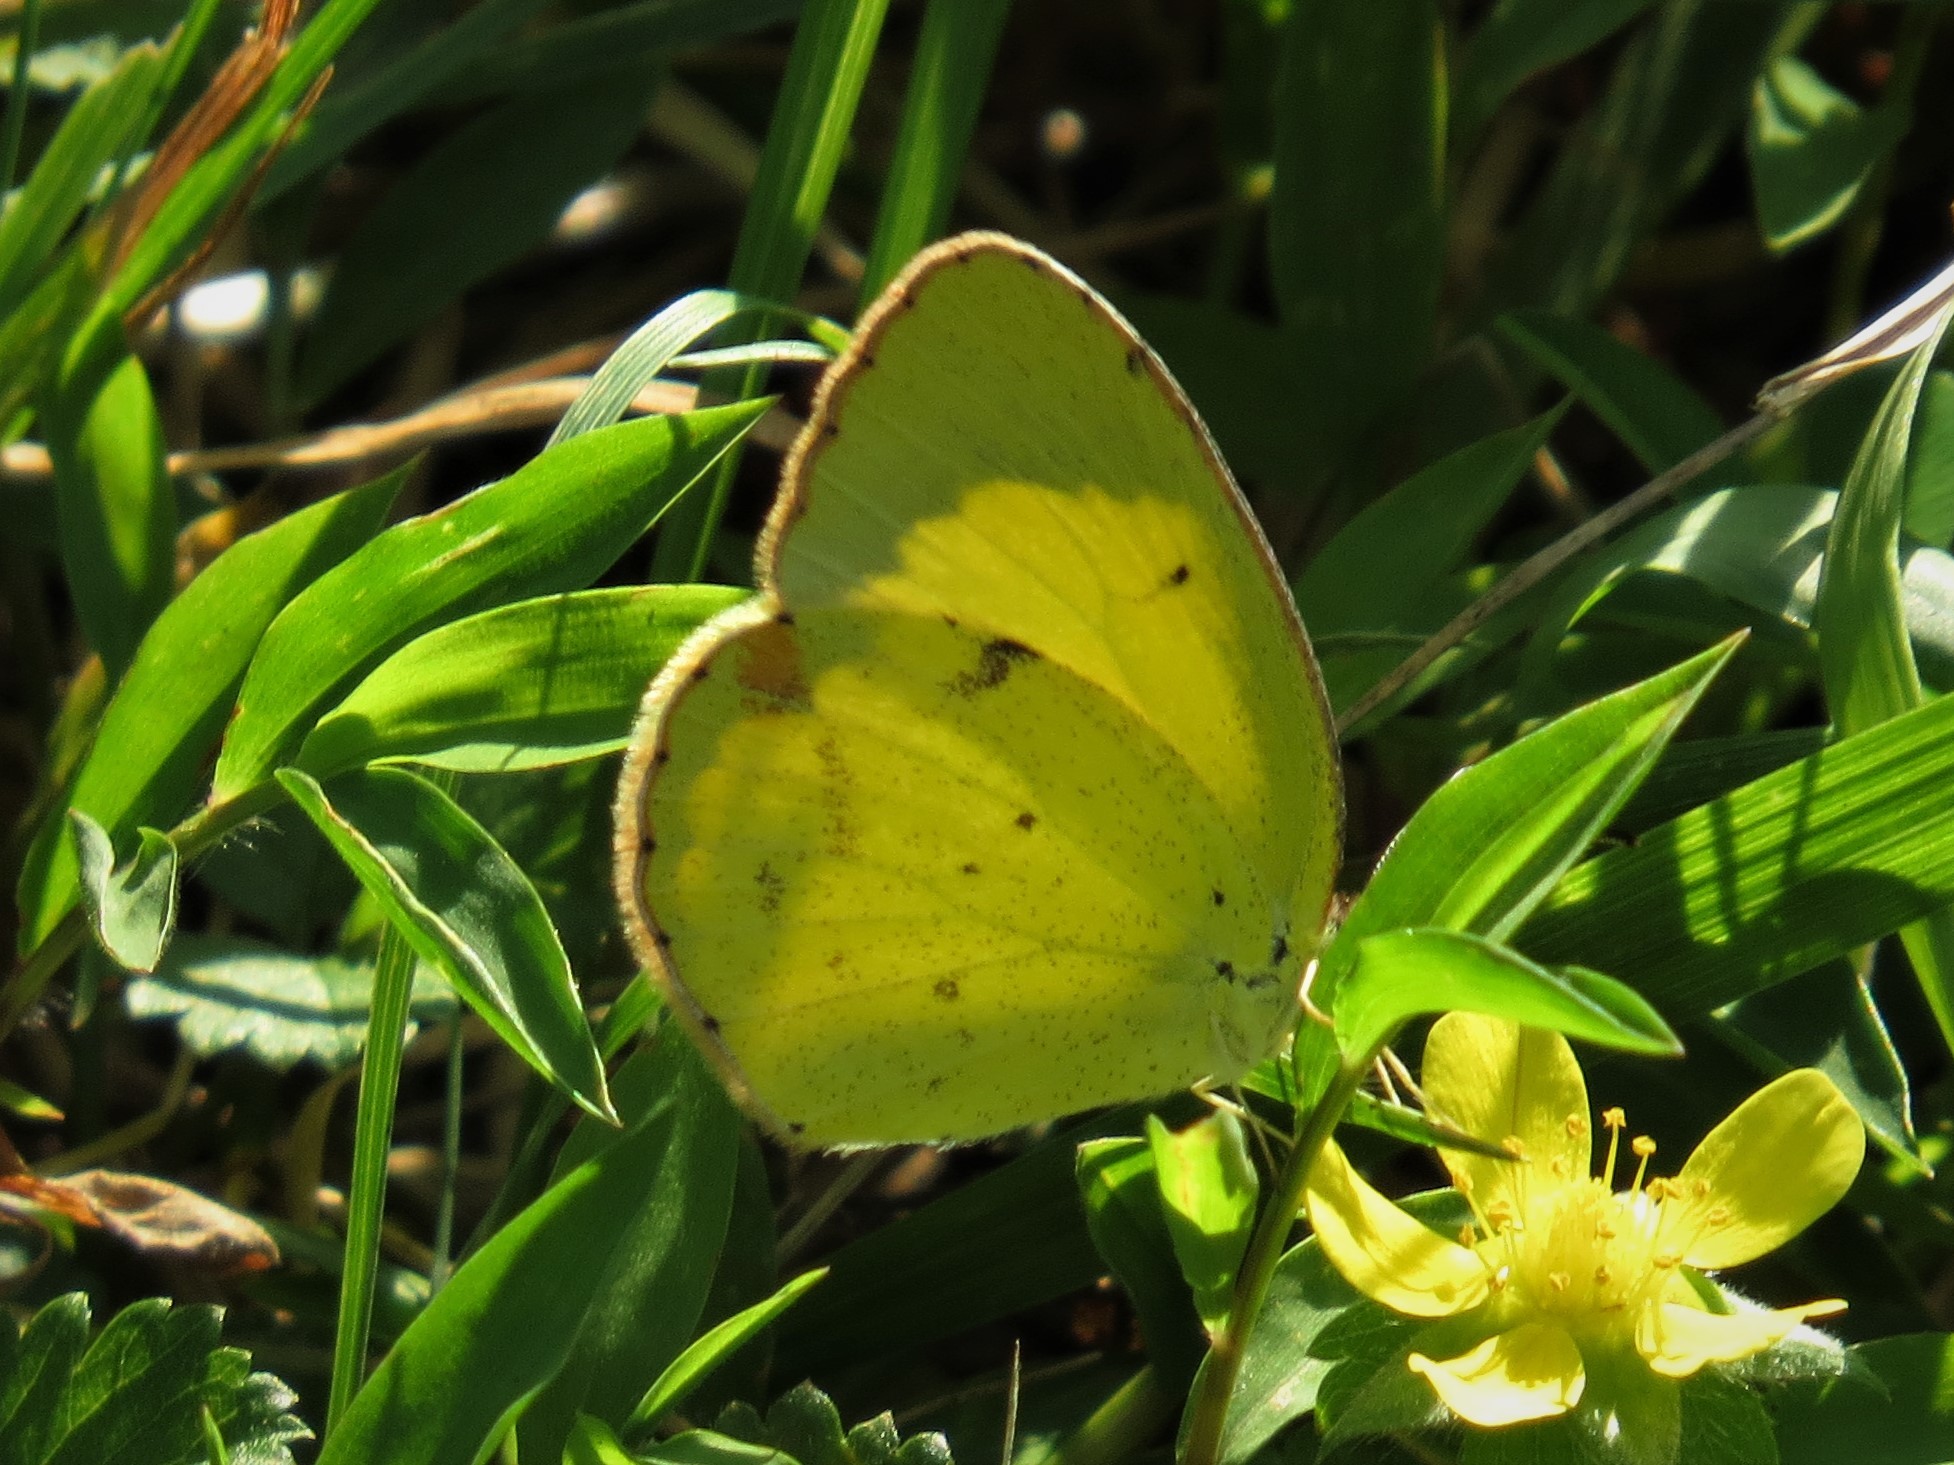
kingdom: Animalia
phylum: Arthropoda
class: Insecta
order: Lepidoptera
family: Pieridae
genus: Pyrisitia
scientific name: Pyrisitia lisa
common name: Little yellow
